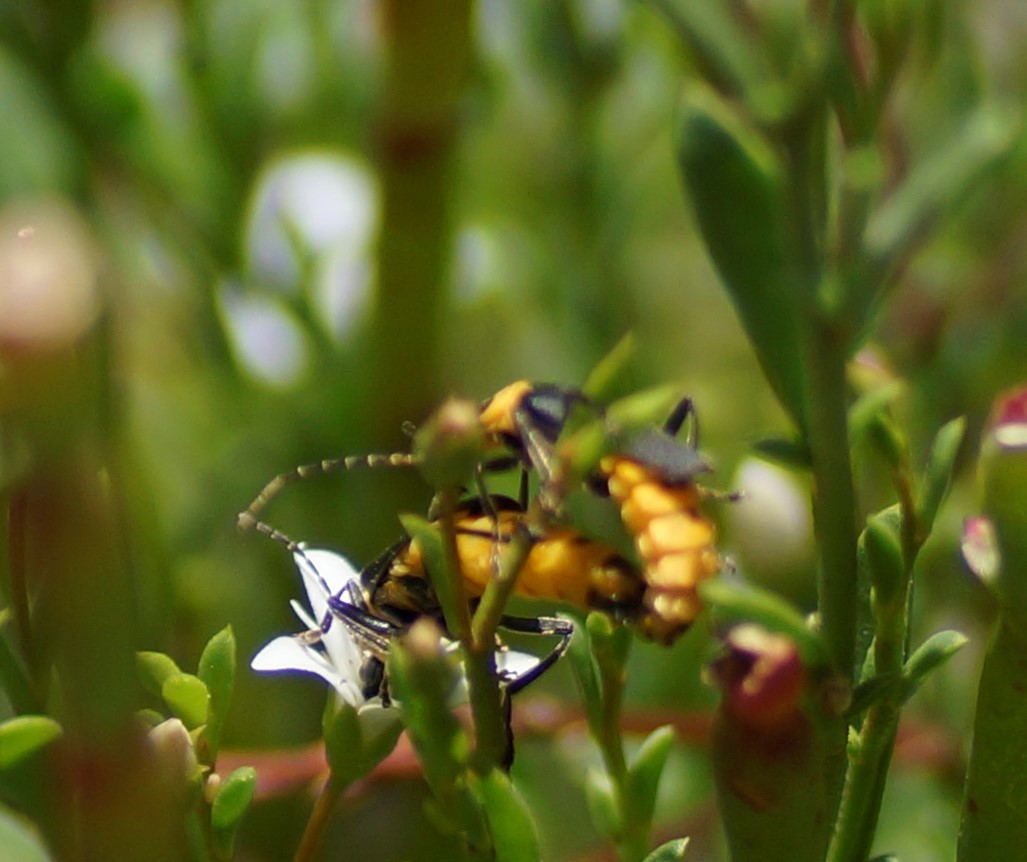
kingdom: Animalia
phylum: Arthropoda
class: Insecta
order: Coleoptera
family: Cantharidae
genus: Chauliognathus
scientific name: Chauliognathus
